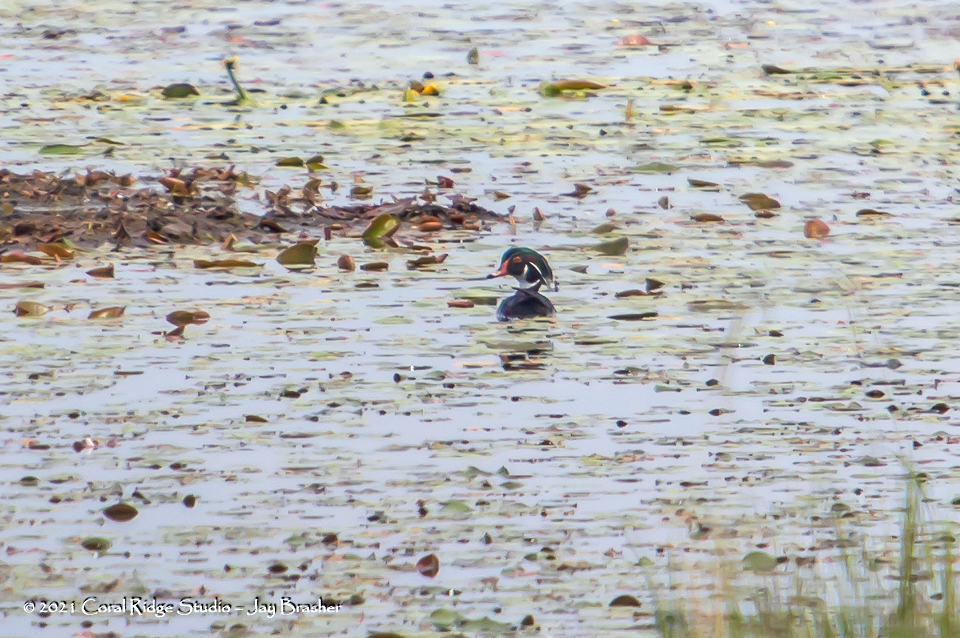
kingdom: Animalia
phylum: Chordata
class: Aves
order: Anseriformes
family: Anatidae
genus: Aix
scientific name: Aix sponsa
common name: Wood duck
